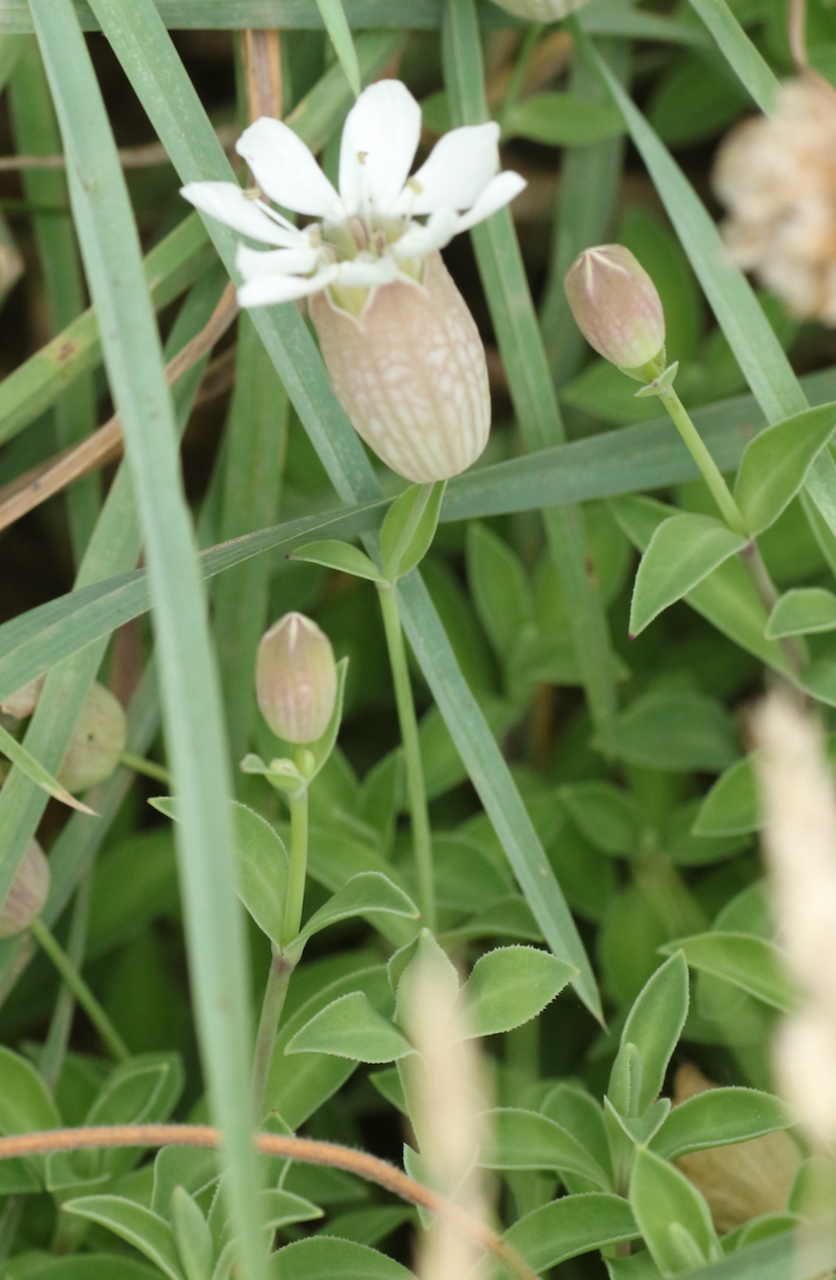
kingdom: Plantae
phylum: Tracheophyta
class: Magnoliopsida
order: Caryophyllales
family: Caryophyllaceae
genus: Silene
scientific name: Silene uniflora
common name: Sea campion
